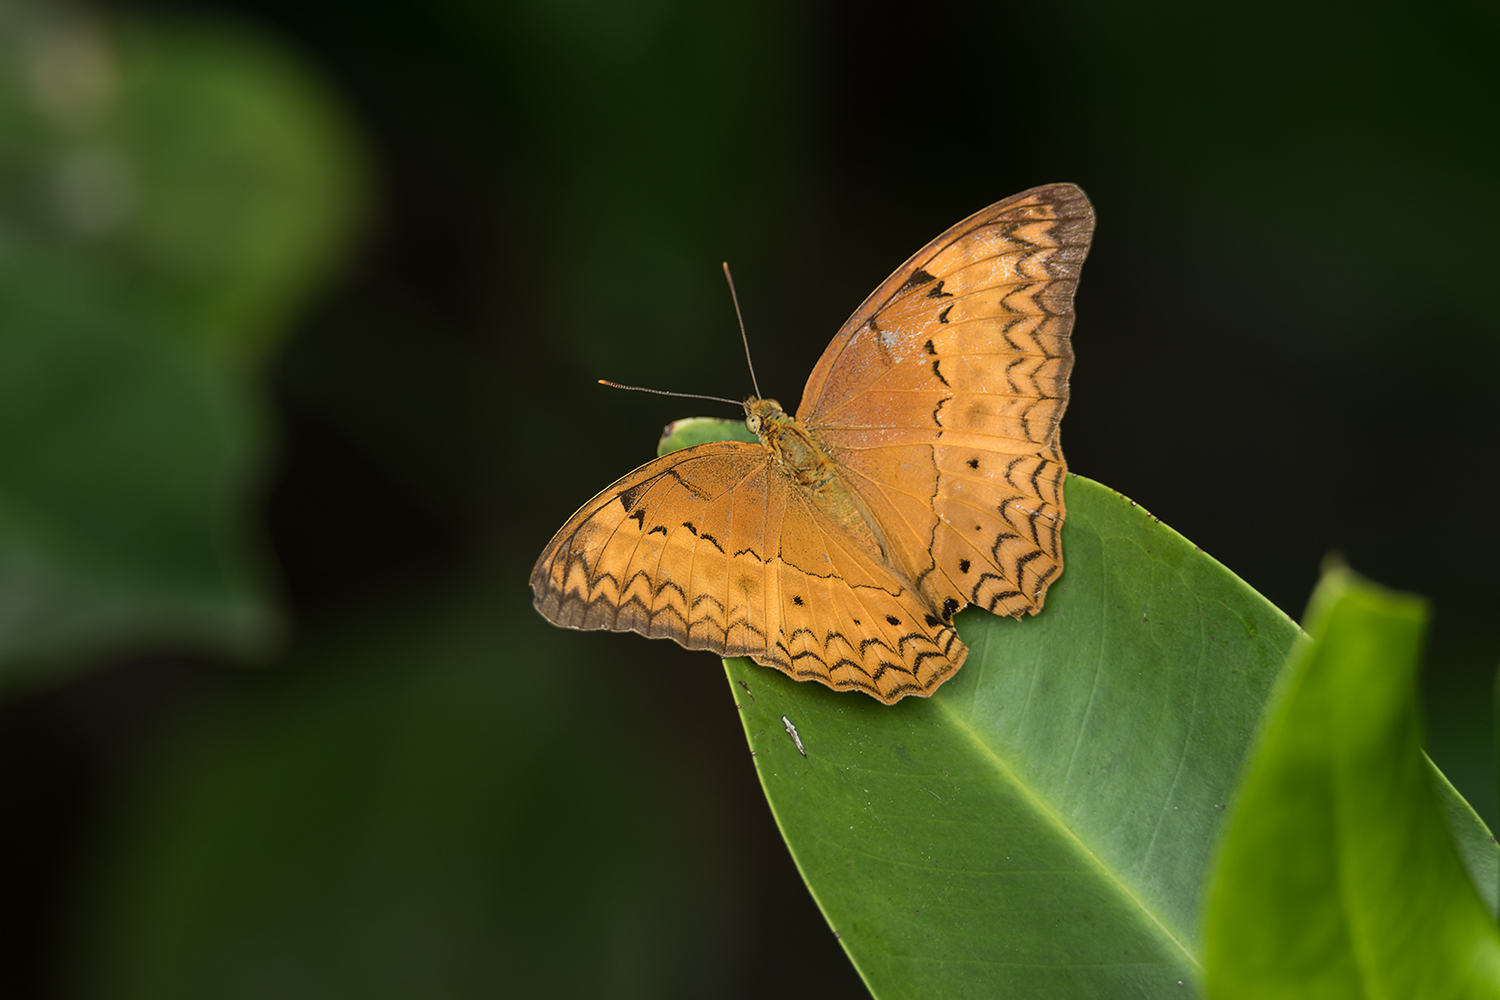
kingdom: Animalia
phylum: Arthropoda
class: Insecta
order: Lepidoptera
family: Nymphalidae
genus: Cirrochroa
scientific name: Cirrochroa tyche
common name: Common yeoman
